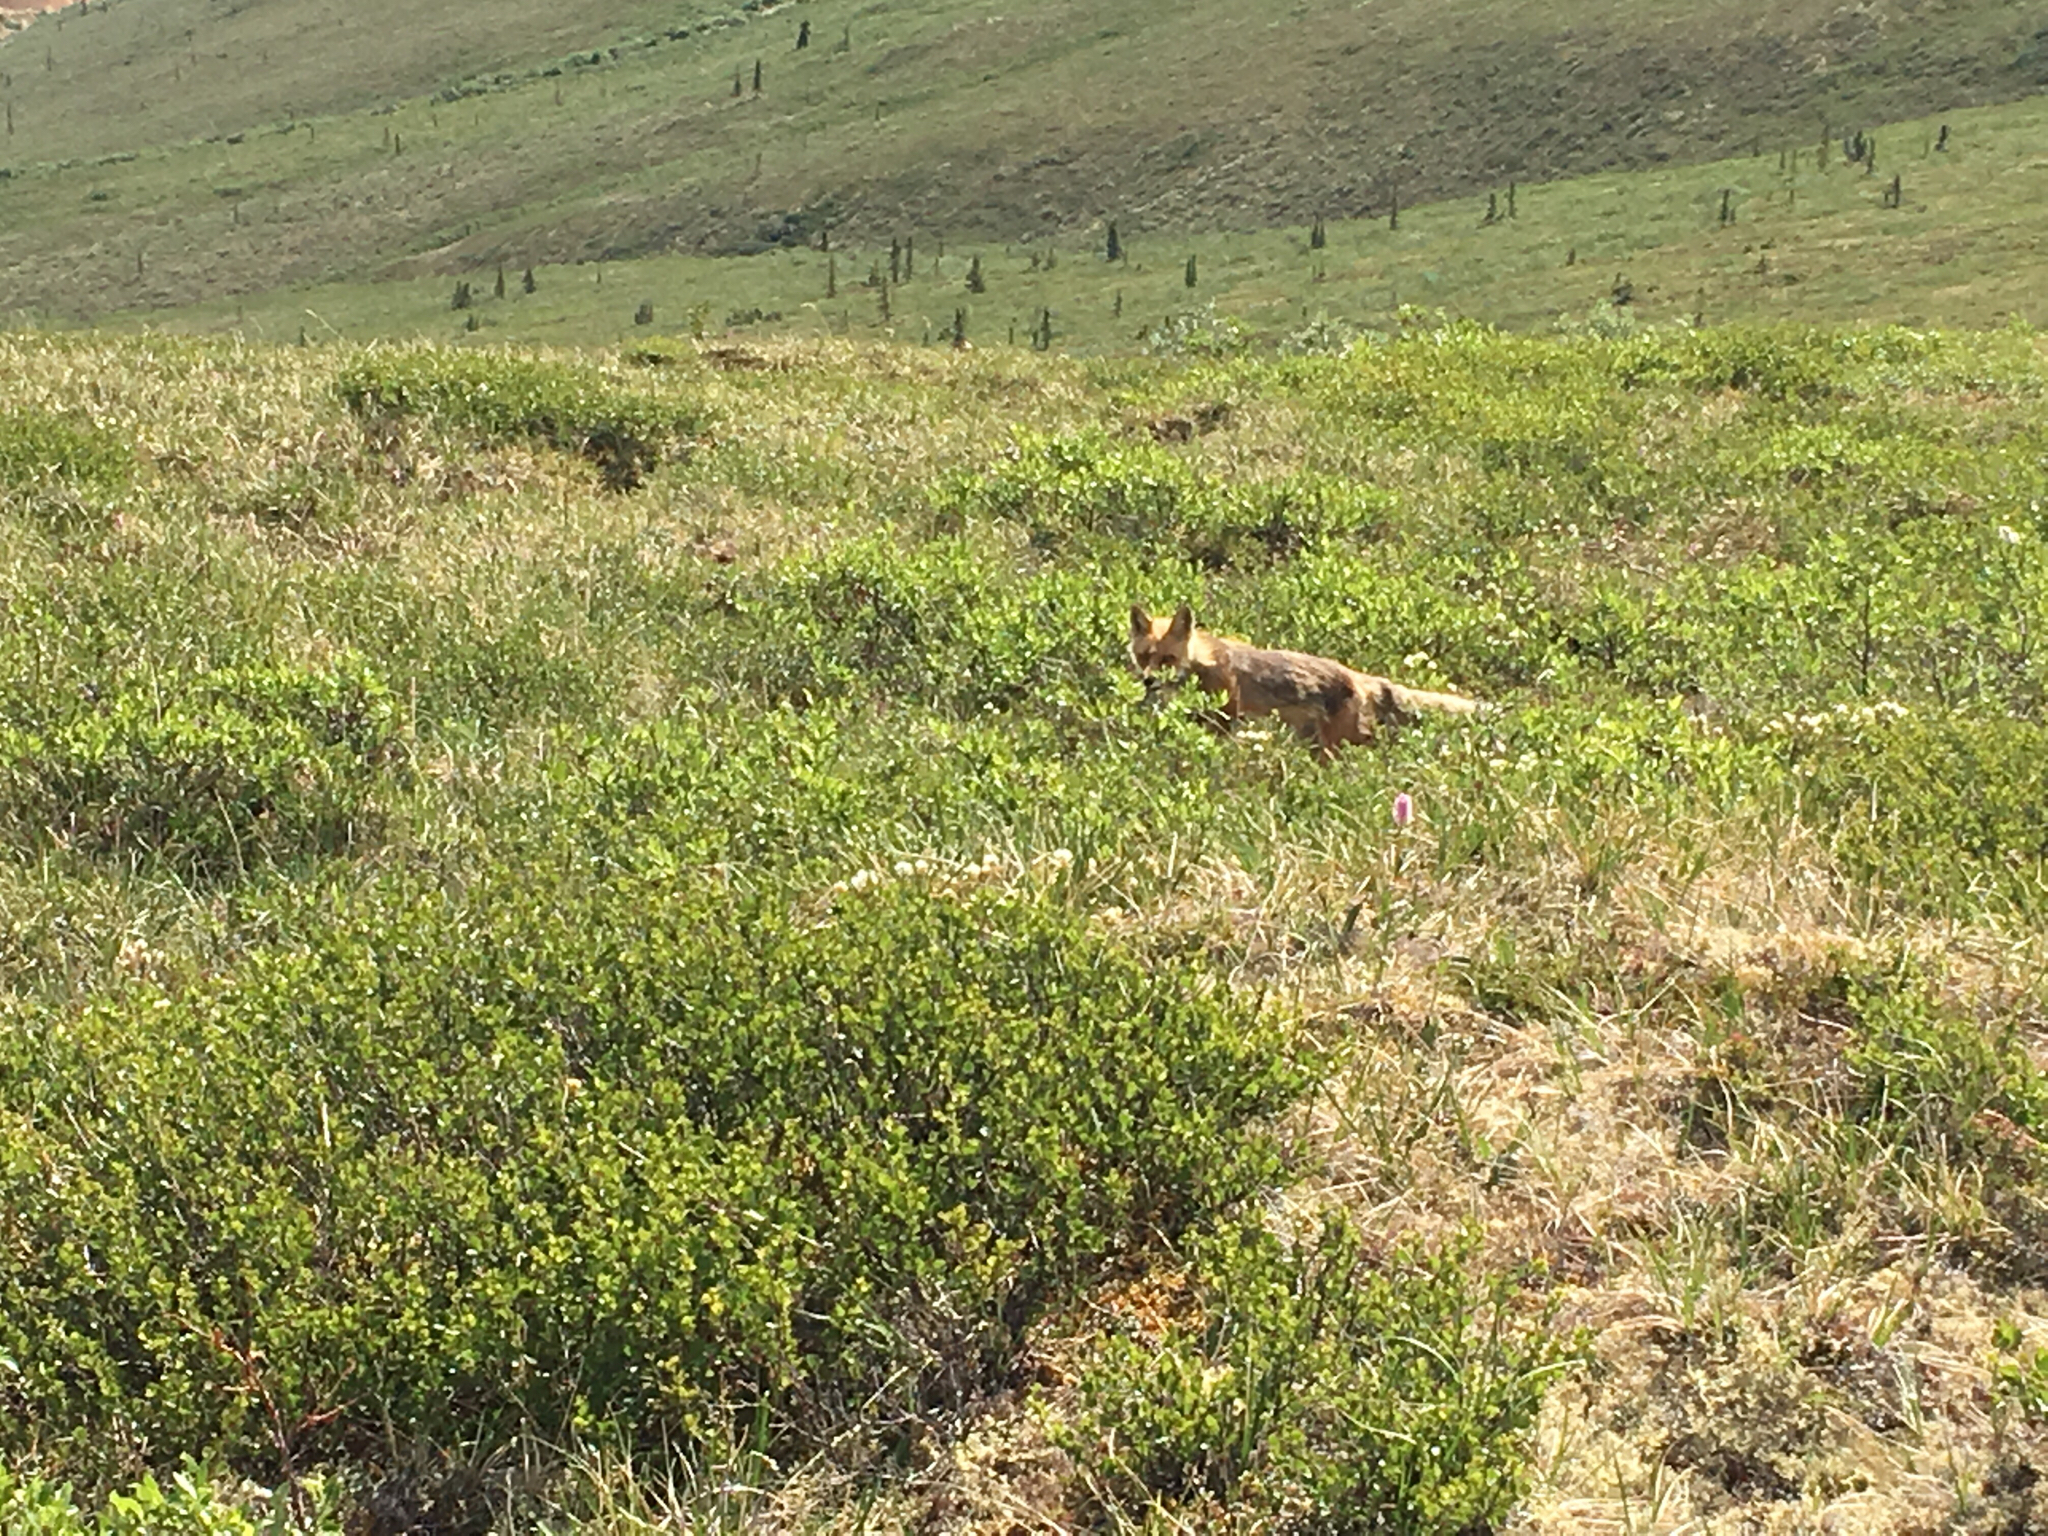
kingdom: Animalia
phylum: Chordata
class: Mammalia
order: Carnivora
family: Canidae
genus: Vulpes
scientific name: Vulpes vulpes
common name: Red fox
